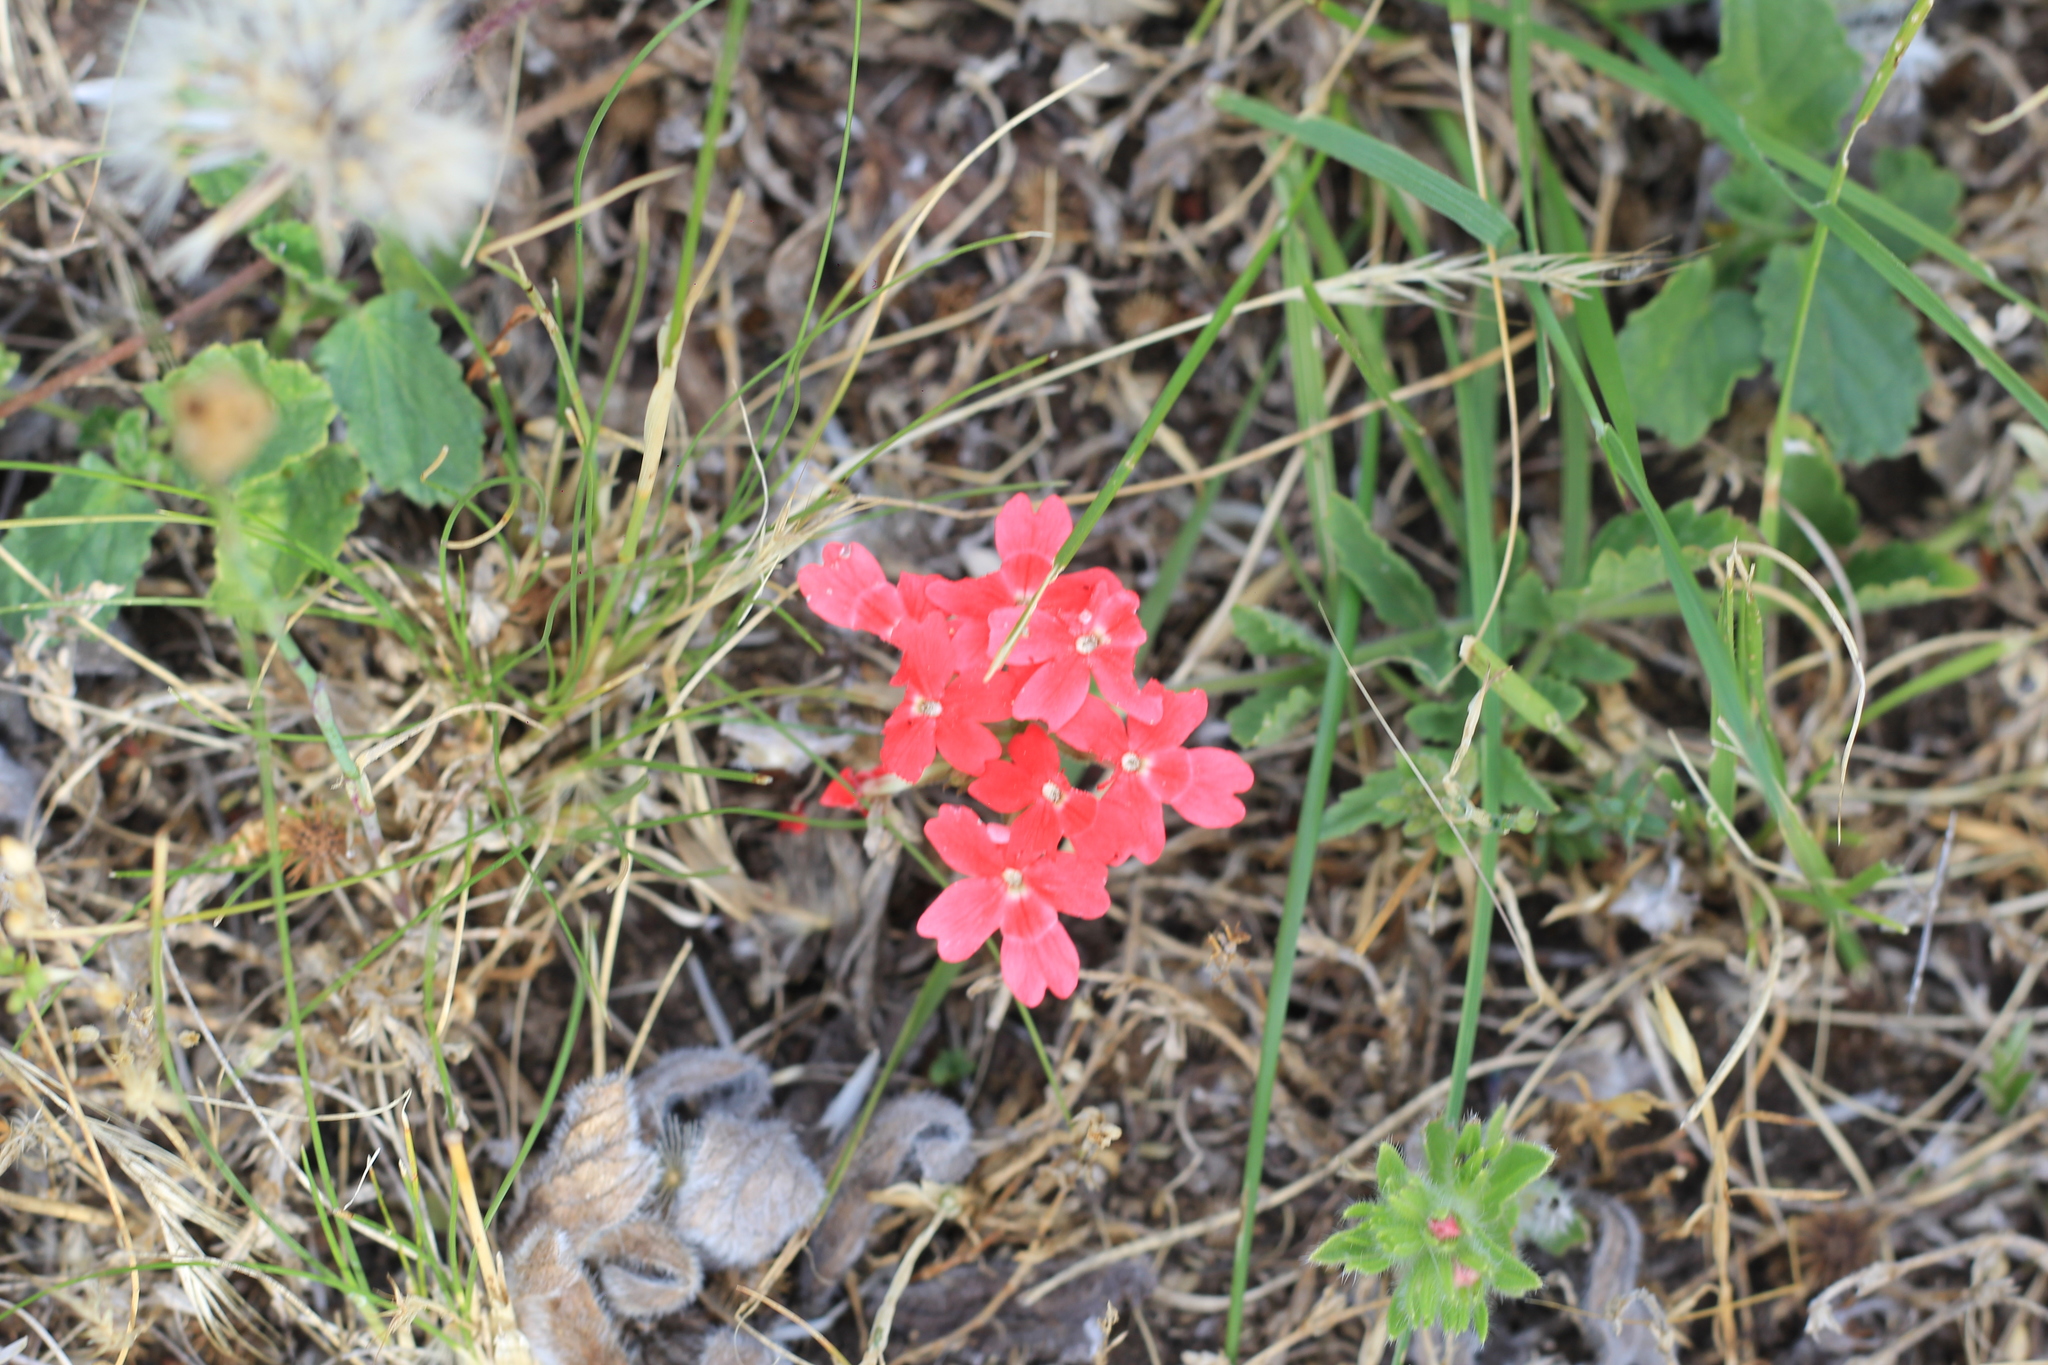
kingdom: Plantae
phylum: Tracheophyta
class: Magnoliopsida
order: Lamiales
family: Verbenaceae
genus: Verbena
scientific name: Verbena peruviana
